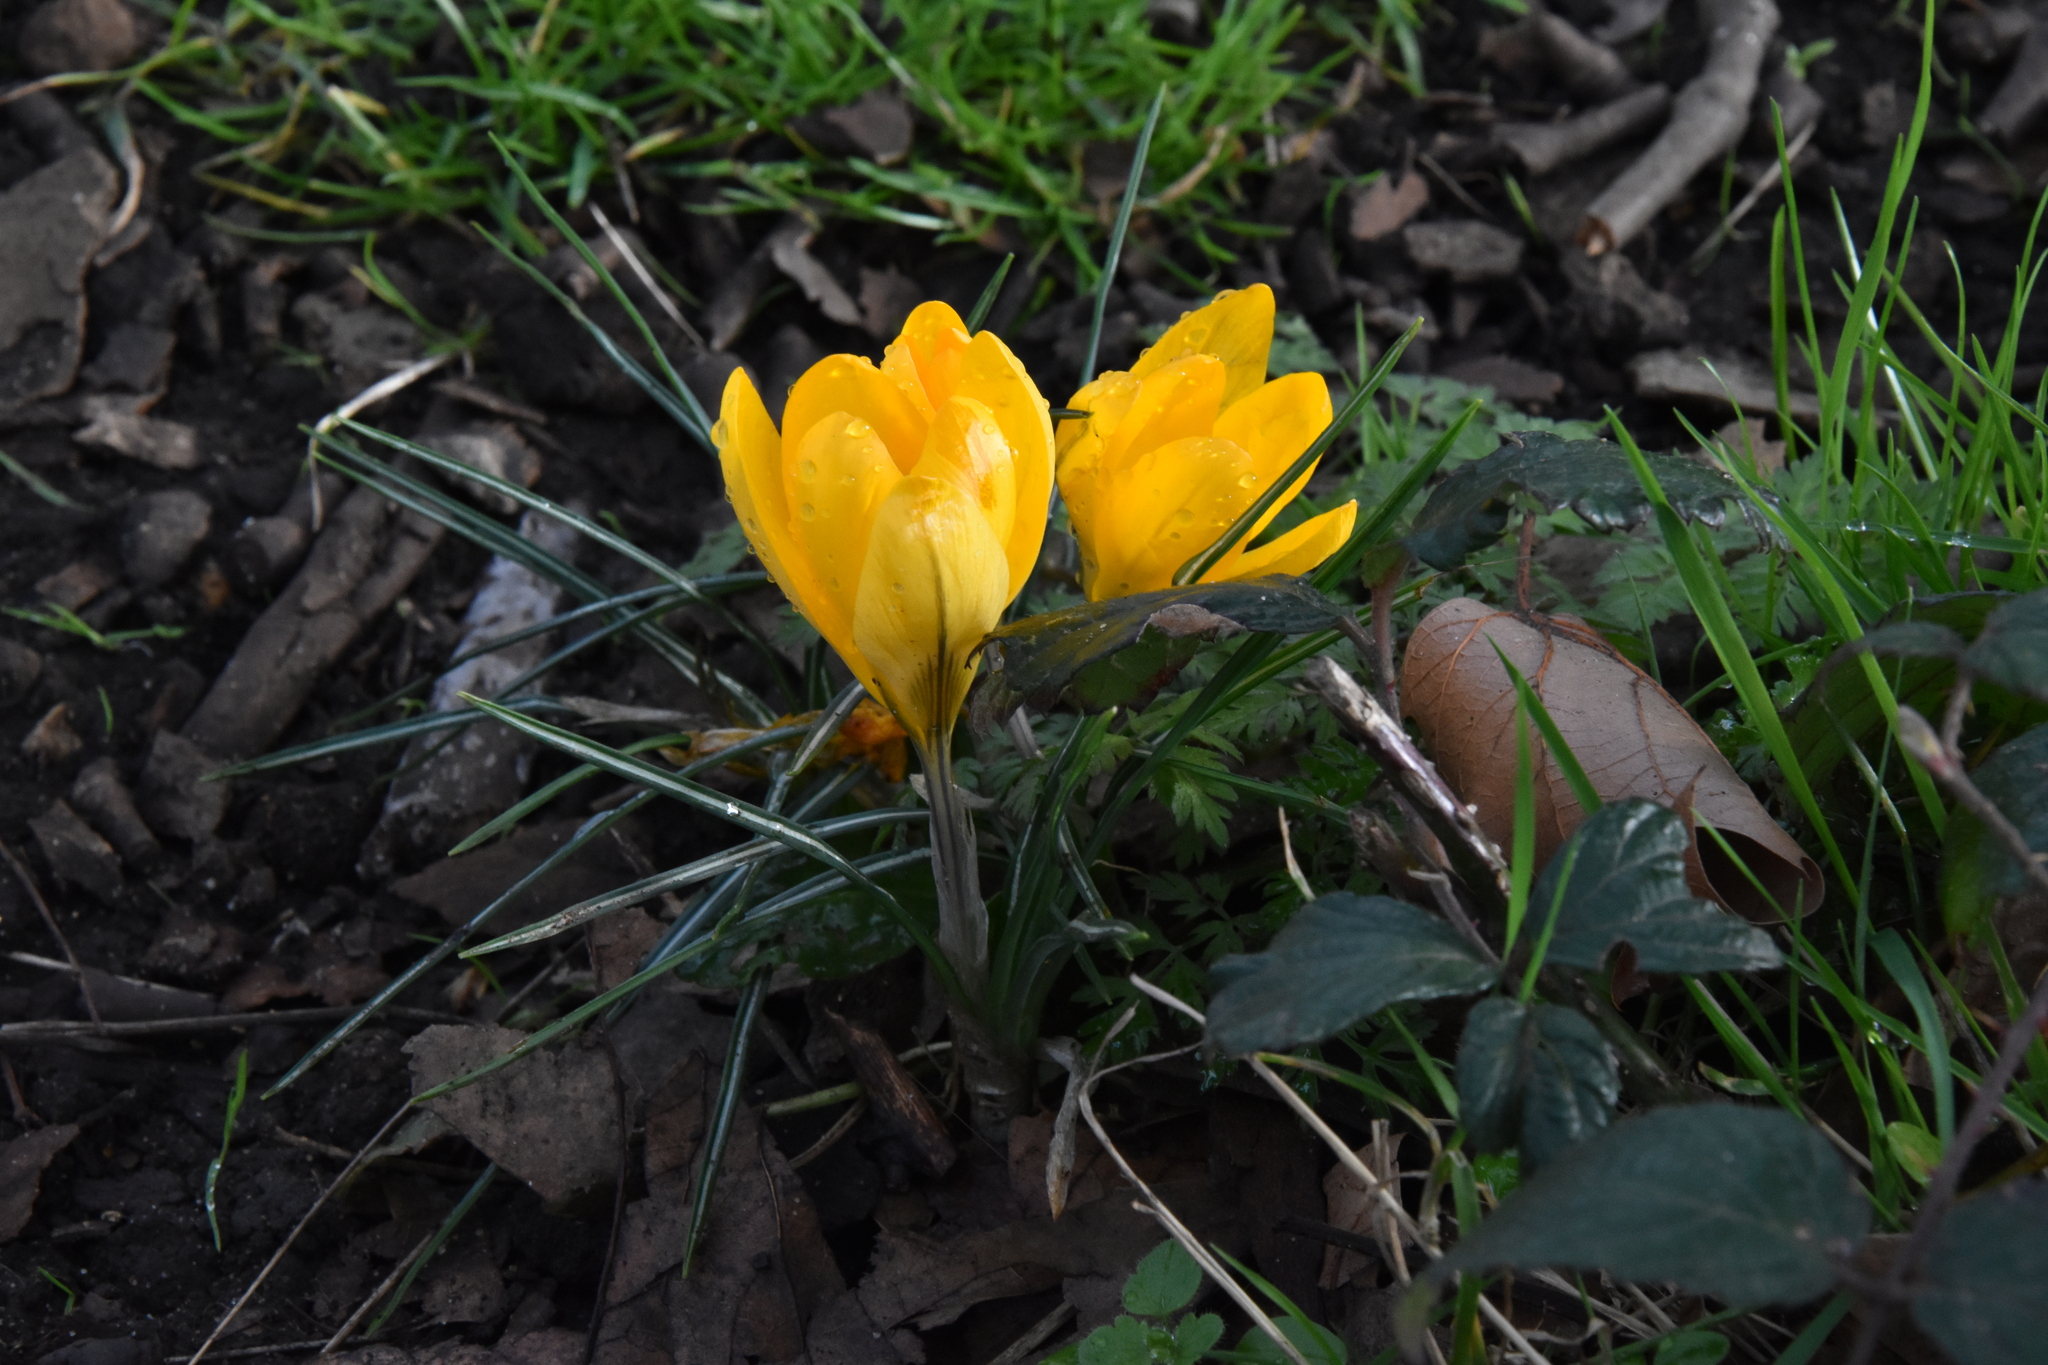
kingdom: Plantae
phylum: Tracheophyta
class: Liliopsida
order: Asparagales
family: Iridaceae
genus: Crocus
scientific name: Crocus luteus
